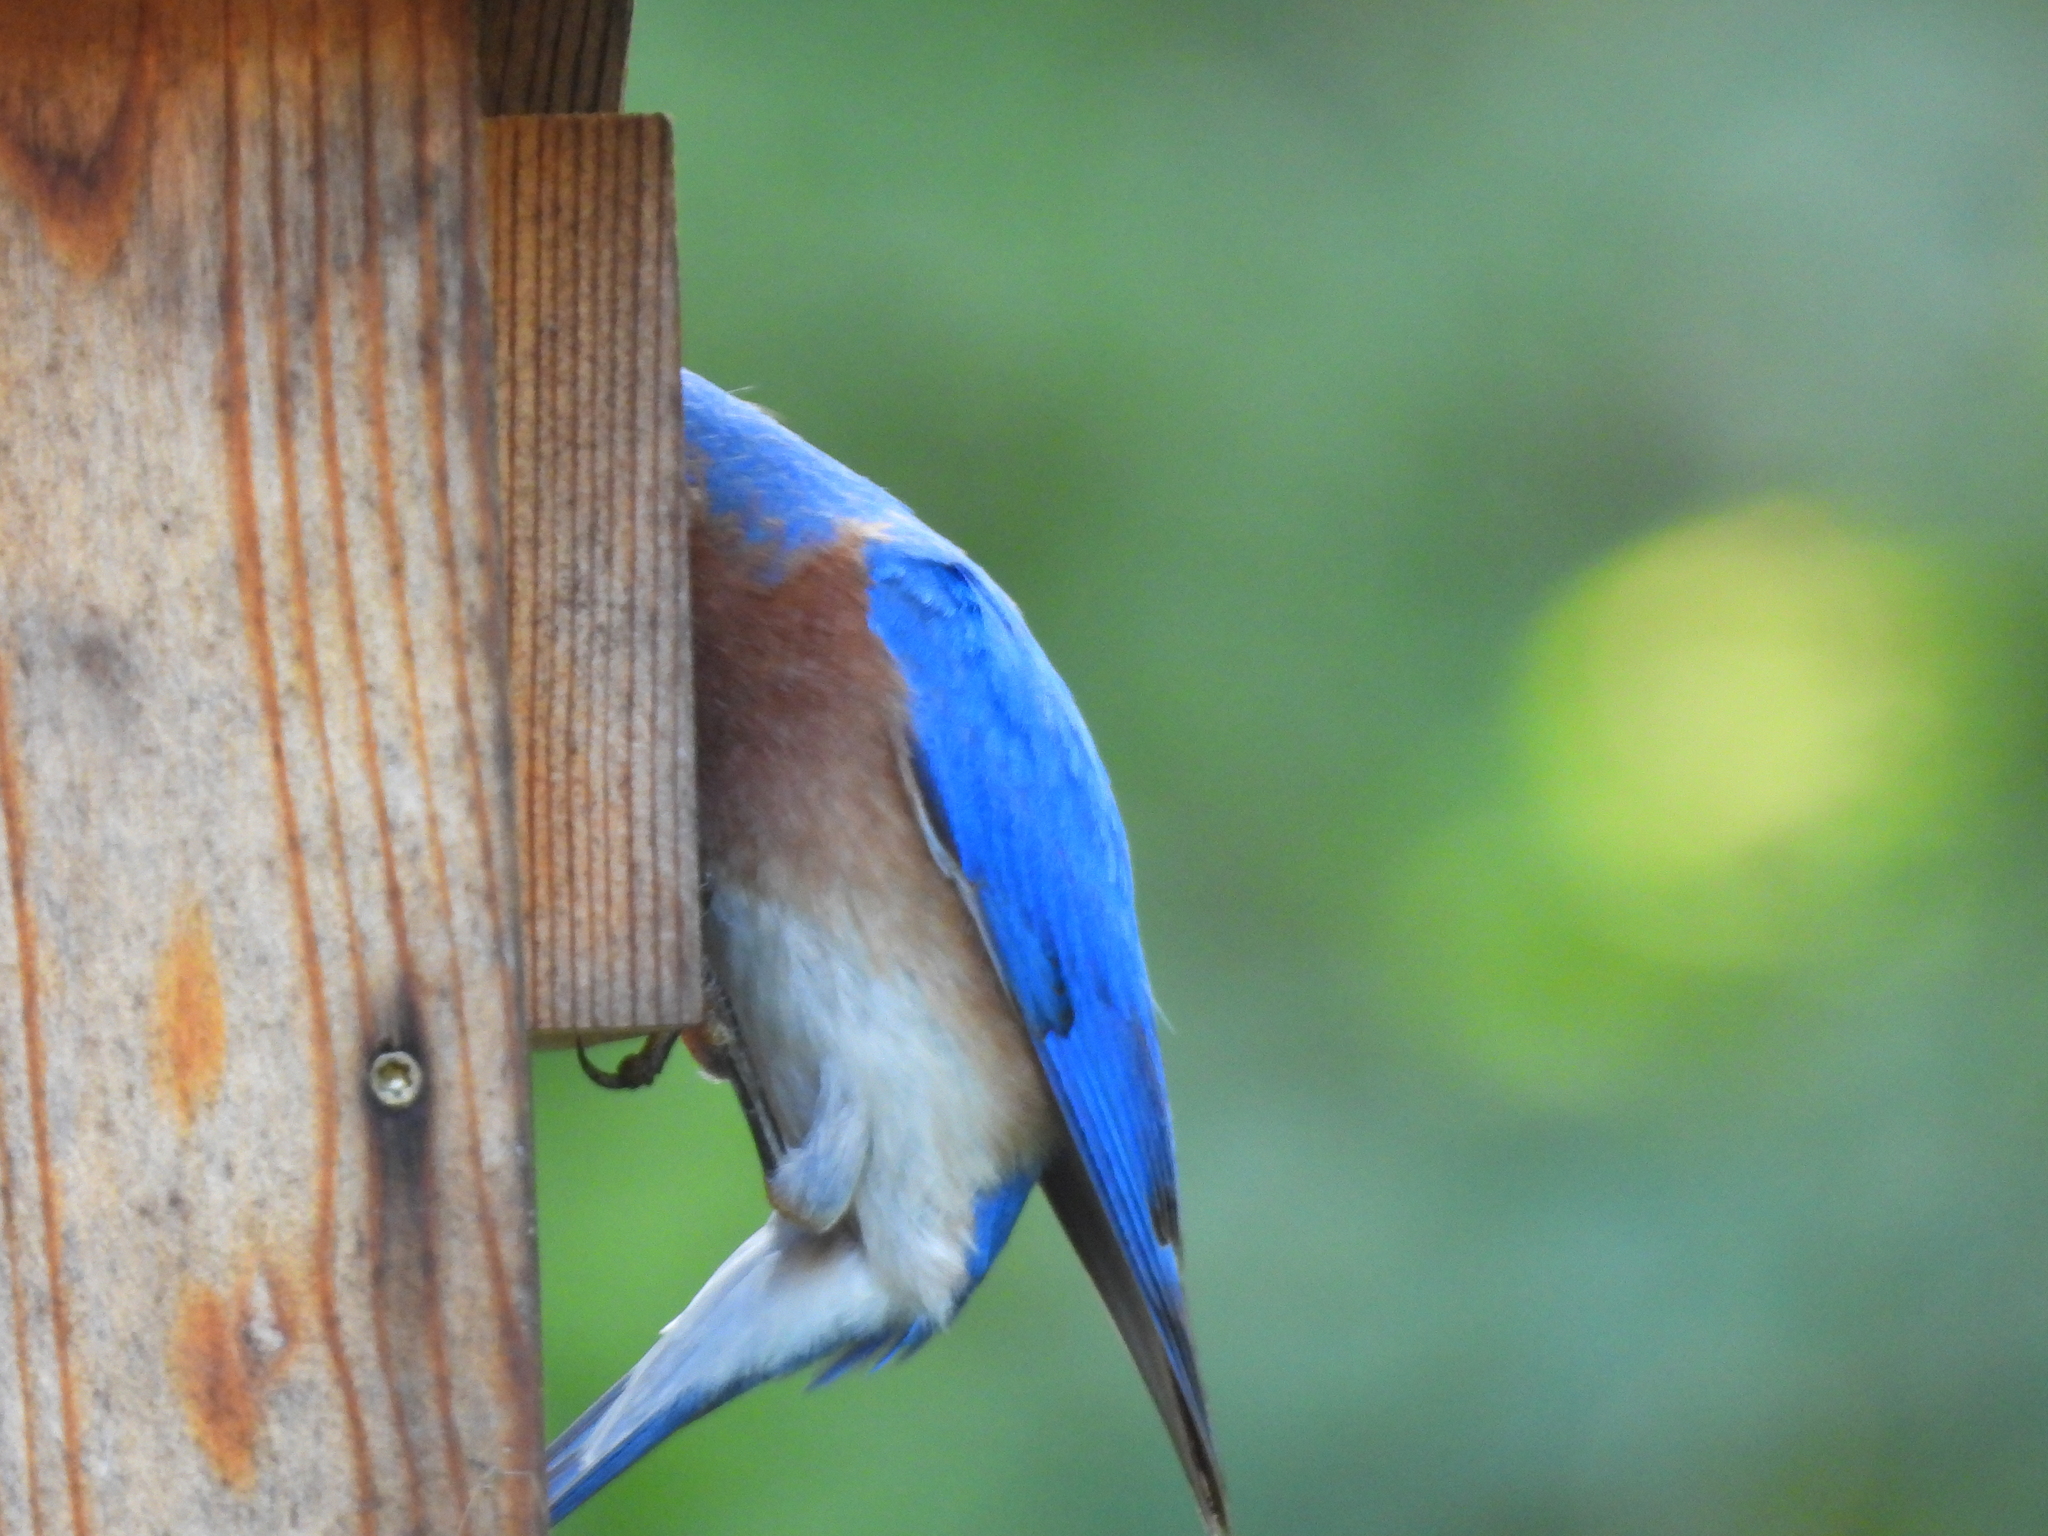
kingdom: Animalia
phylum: Chordata
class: Aves
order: Passeriformes
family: Turdidae
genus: Sialia
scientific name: Sialia sialis
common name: Eastern bluebird
